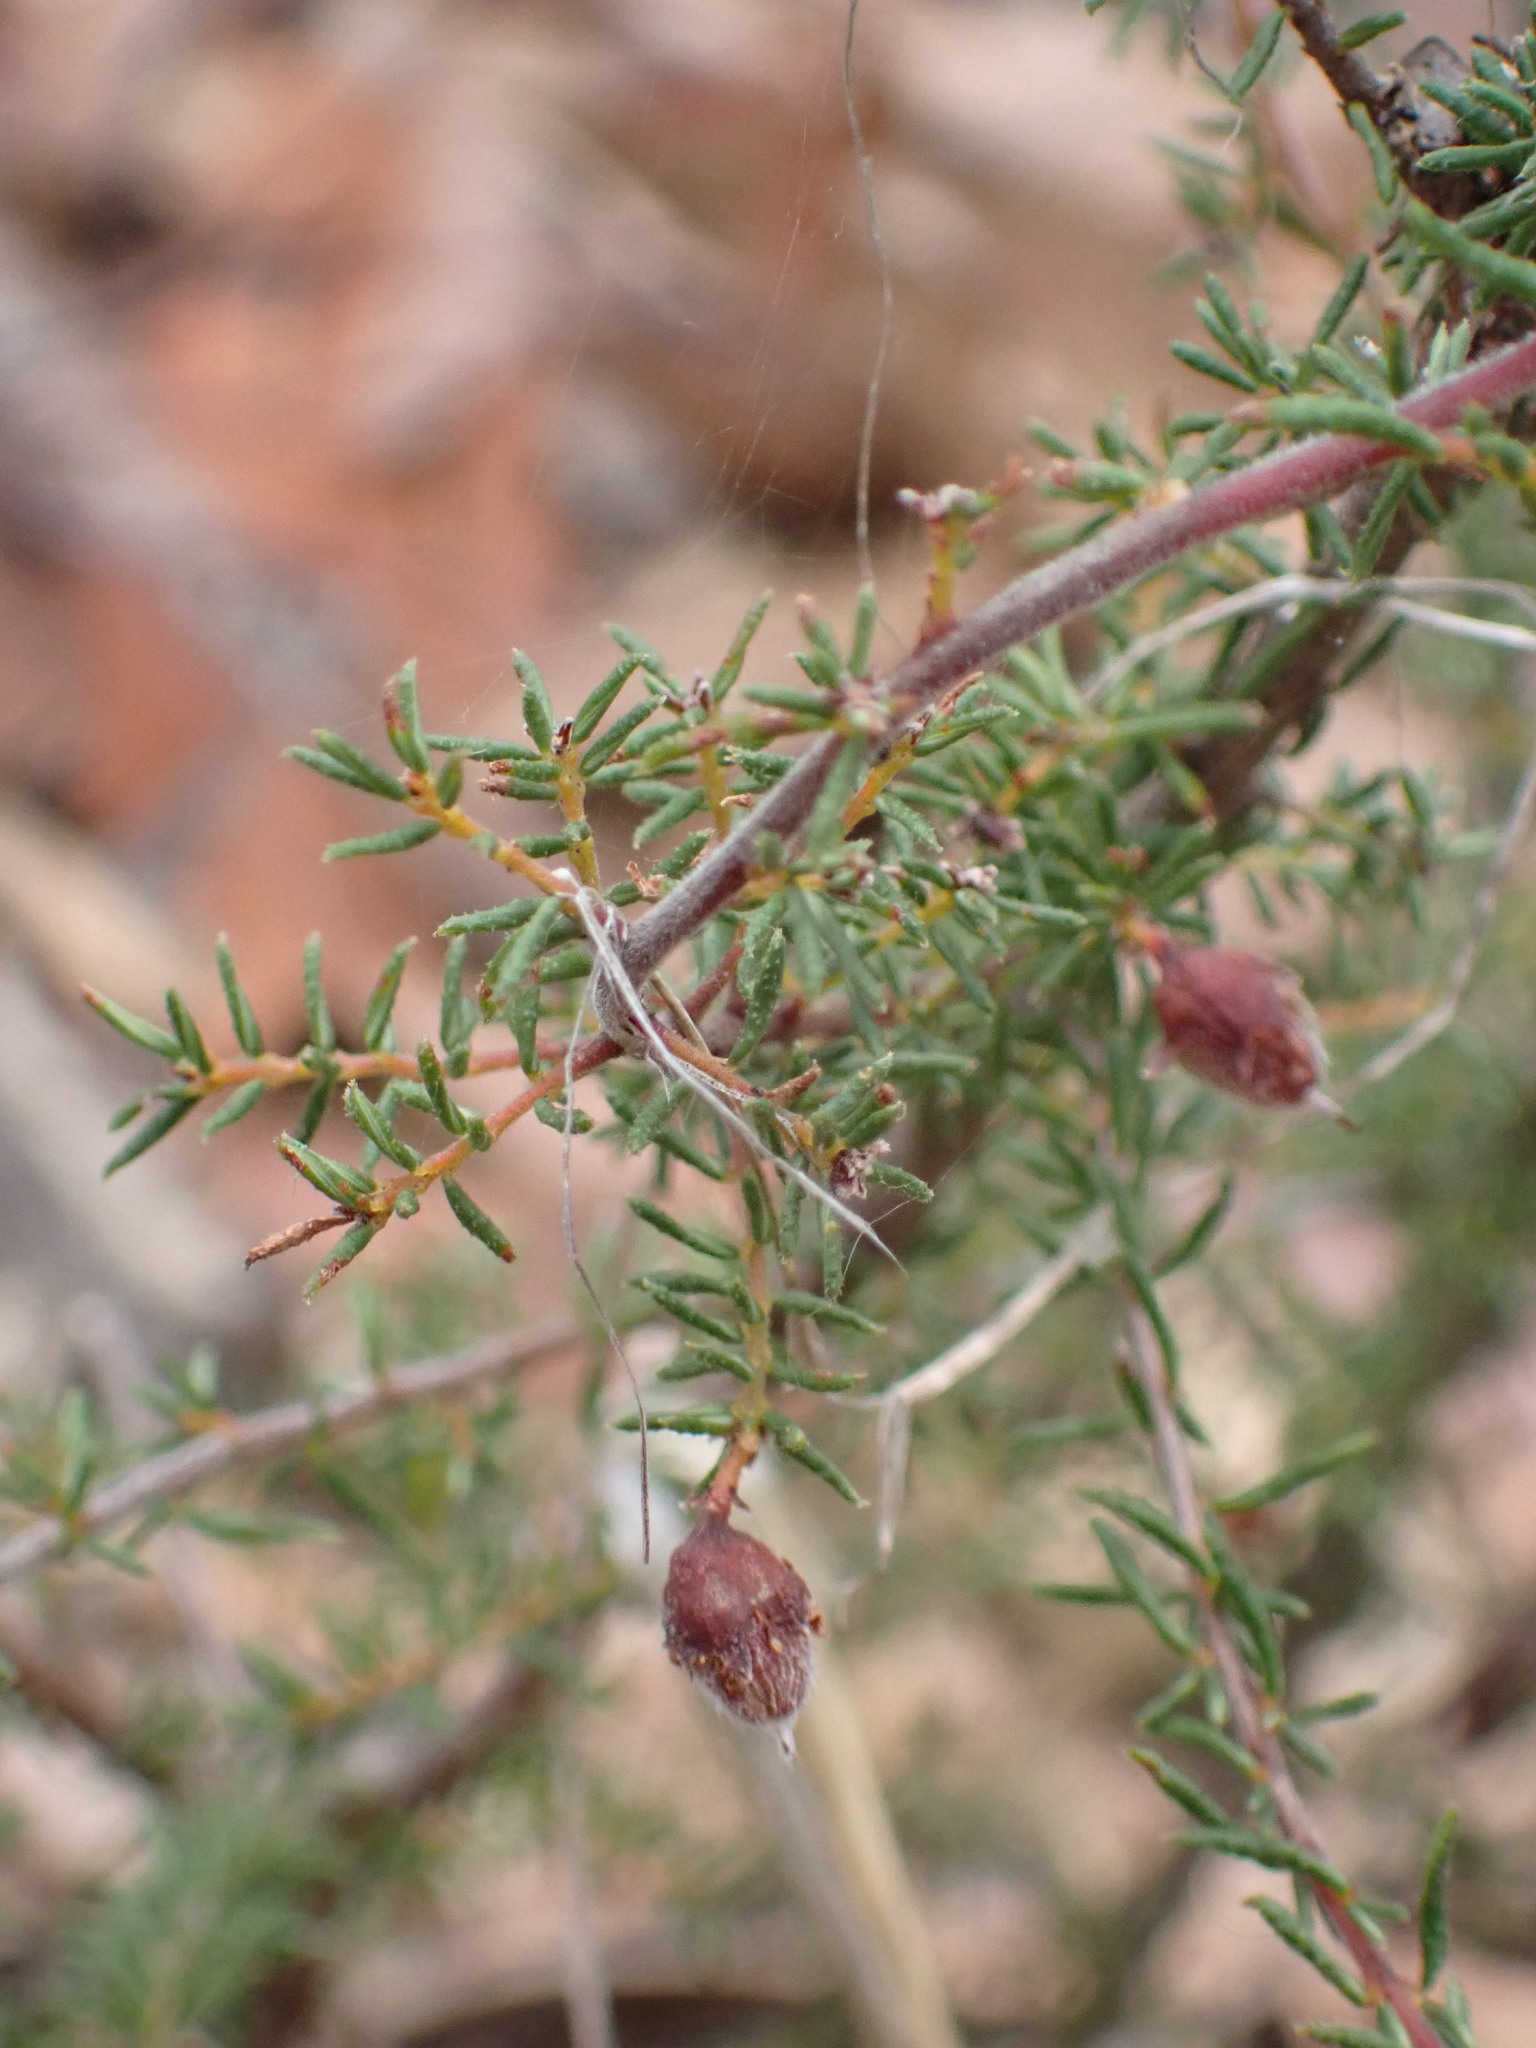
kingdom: Plantae
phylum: Tracheophyta
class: Magnoliopsida
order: Fabales
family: Fabaceae
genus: Dillwynia
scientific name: Dillwynia phylicoides
